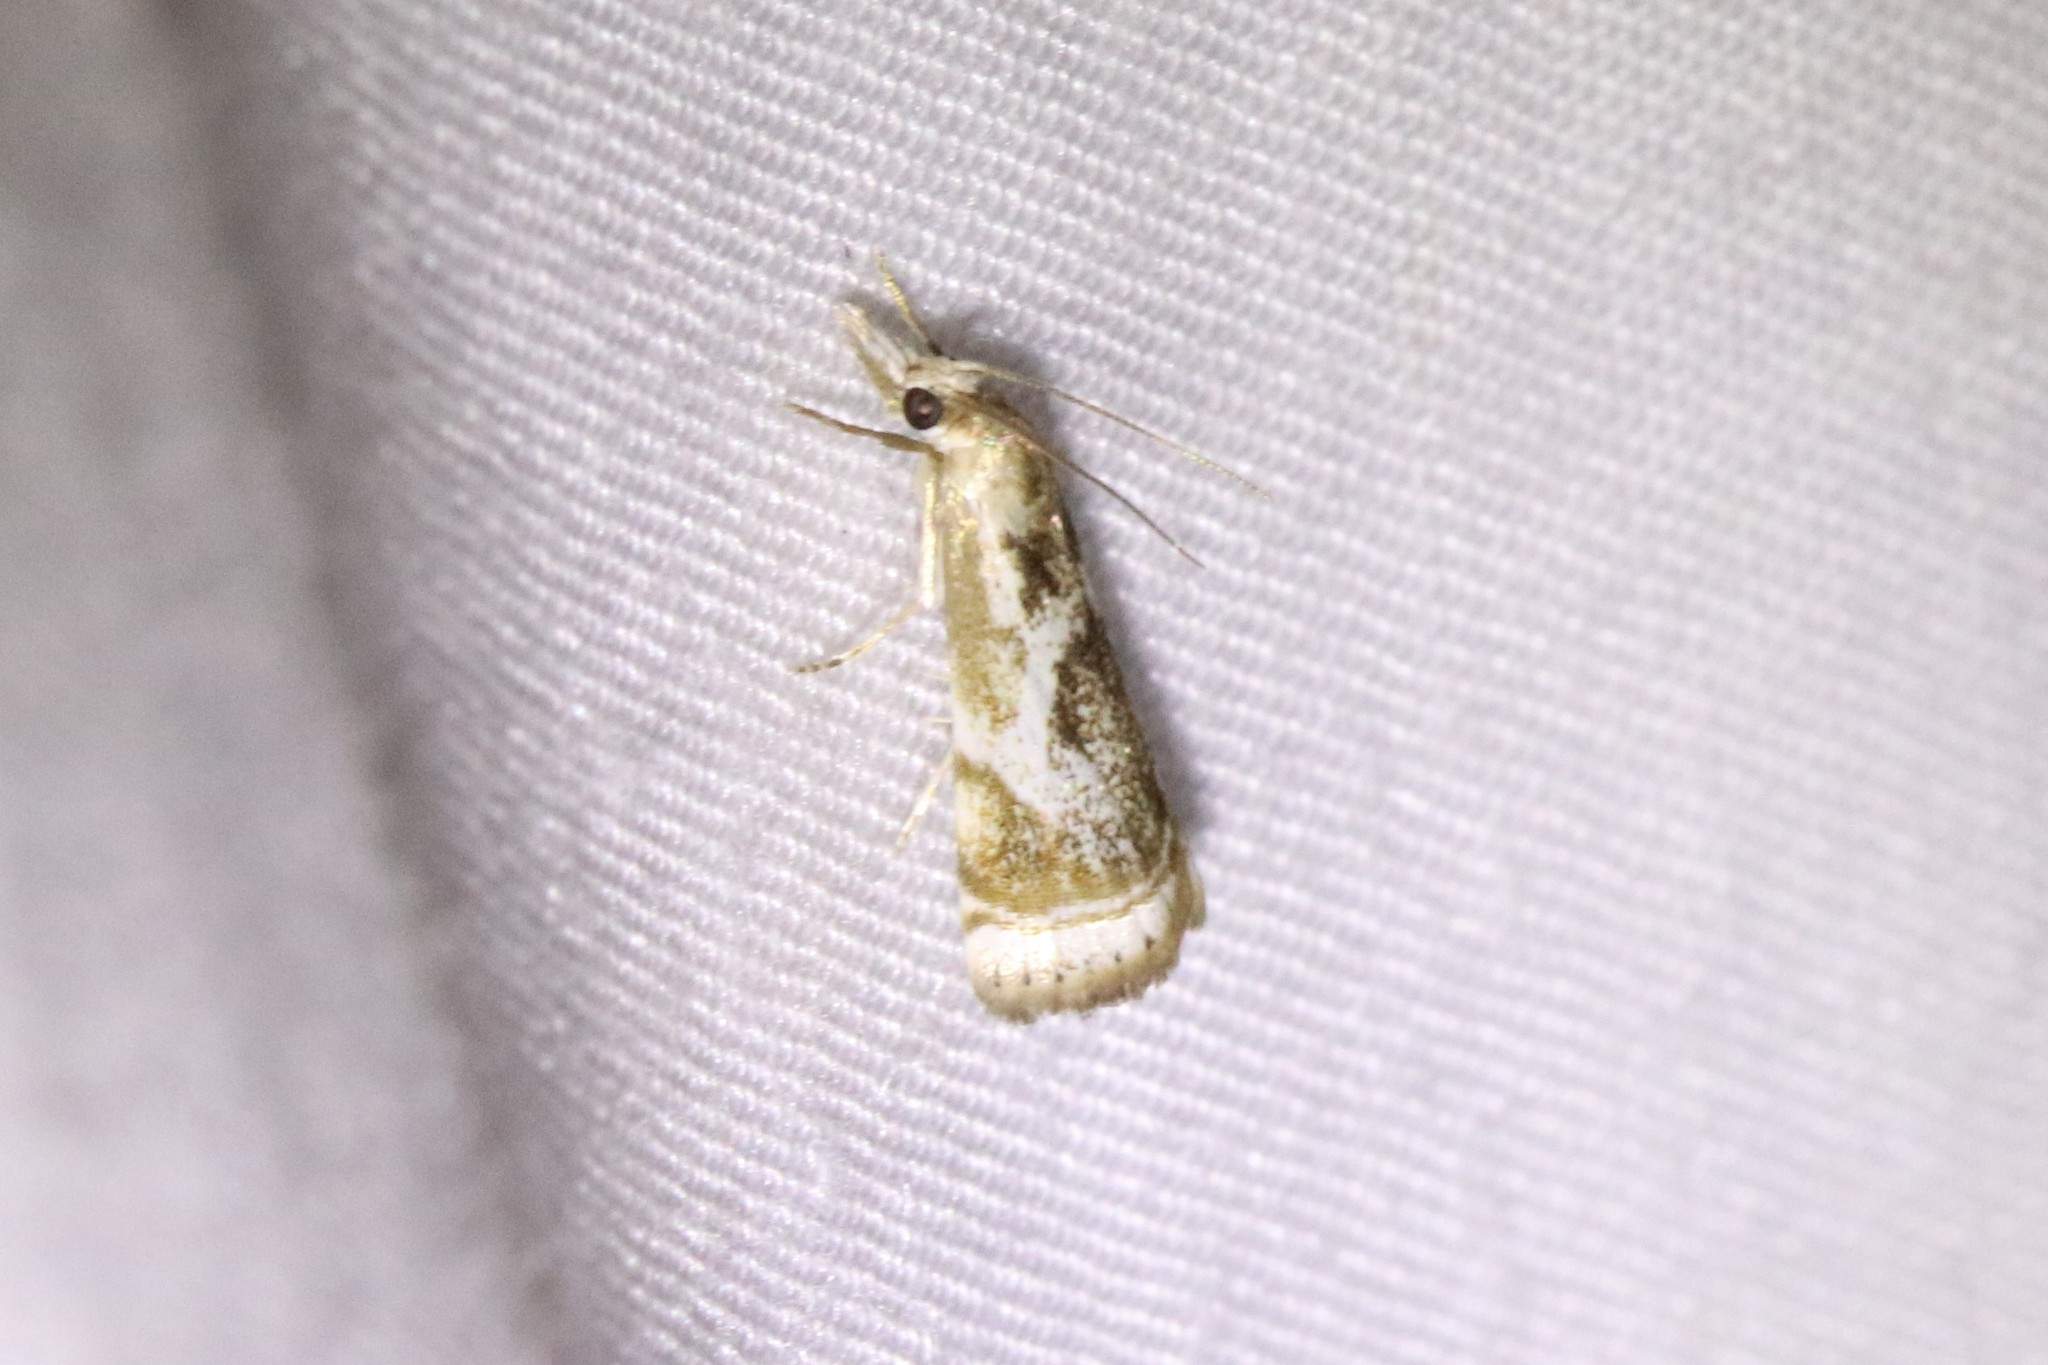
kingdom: Animalia
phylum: Arthropoda
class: Insecta
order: Lepidoptera
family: Crambidae
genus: Microcrambus
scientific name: Microcrambus elegans
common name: Elegant grass-veneer
